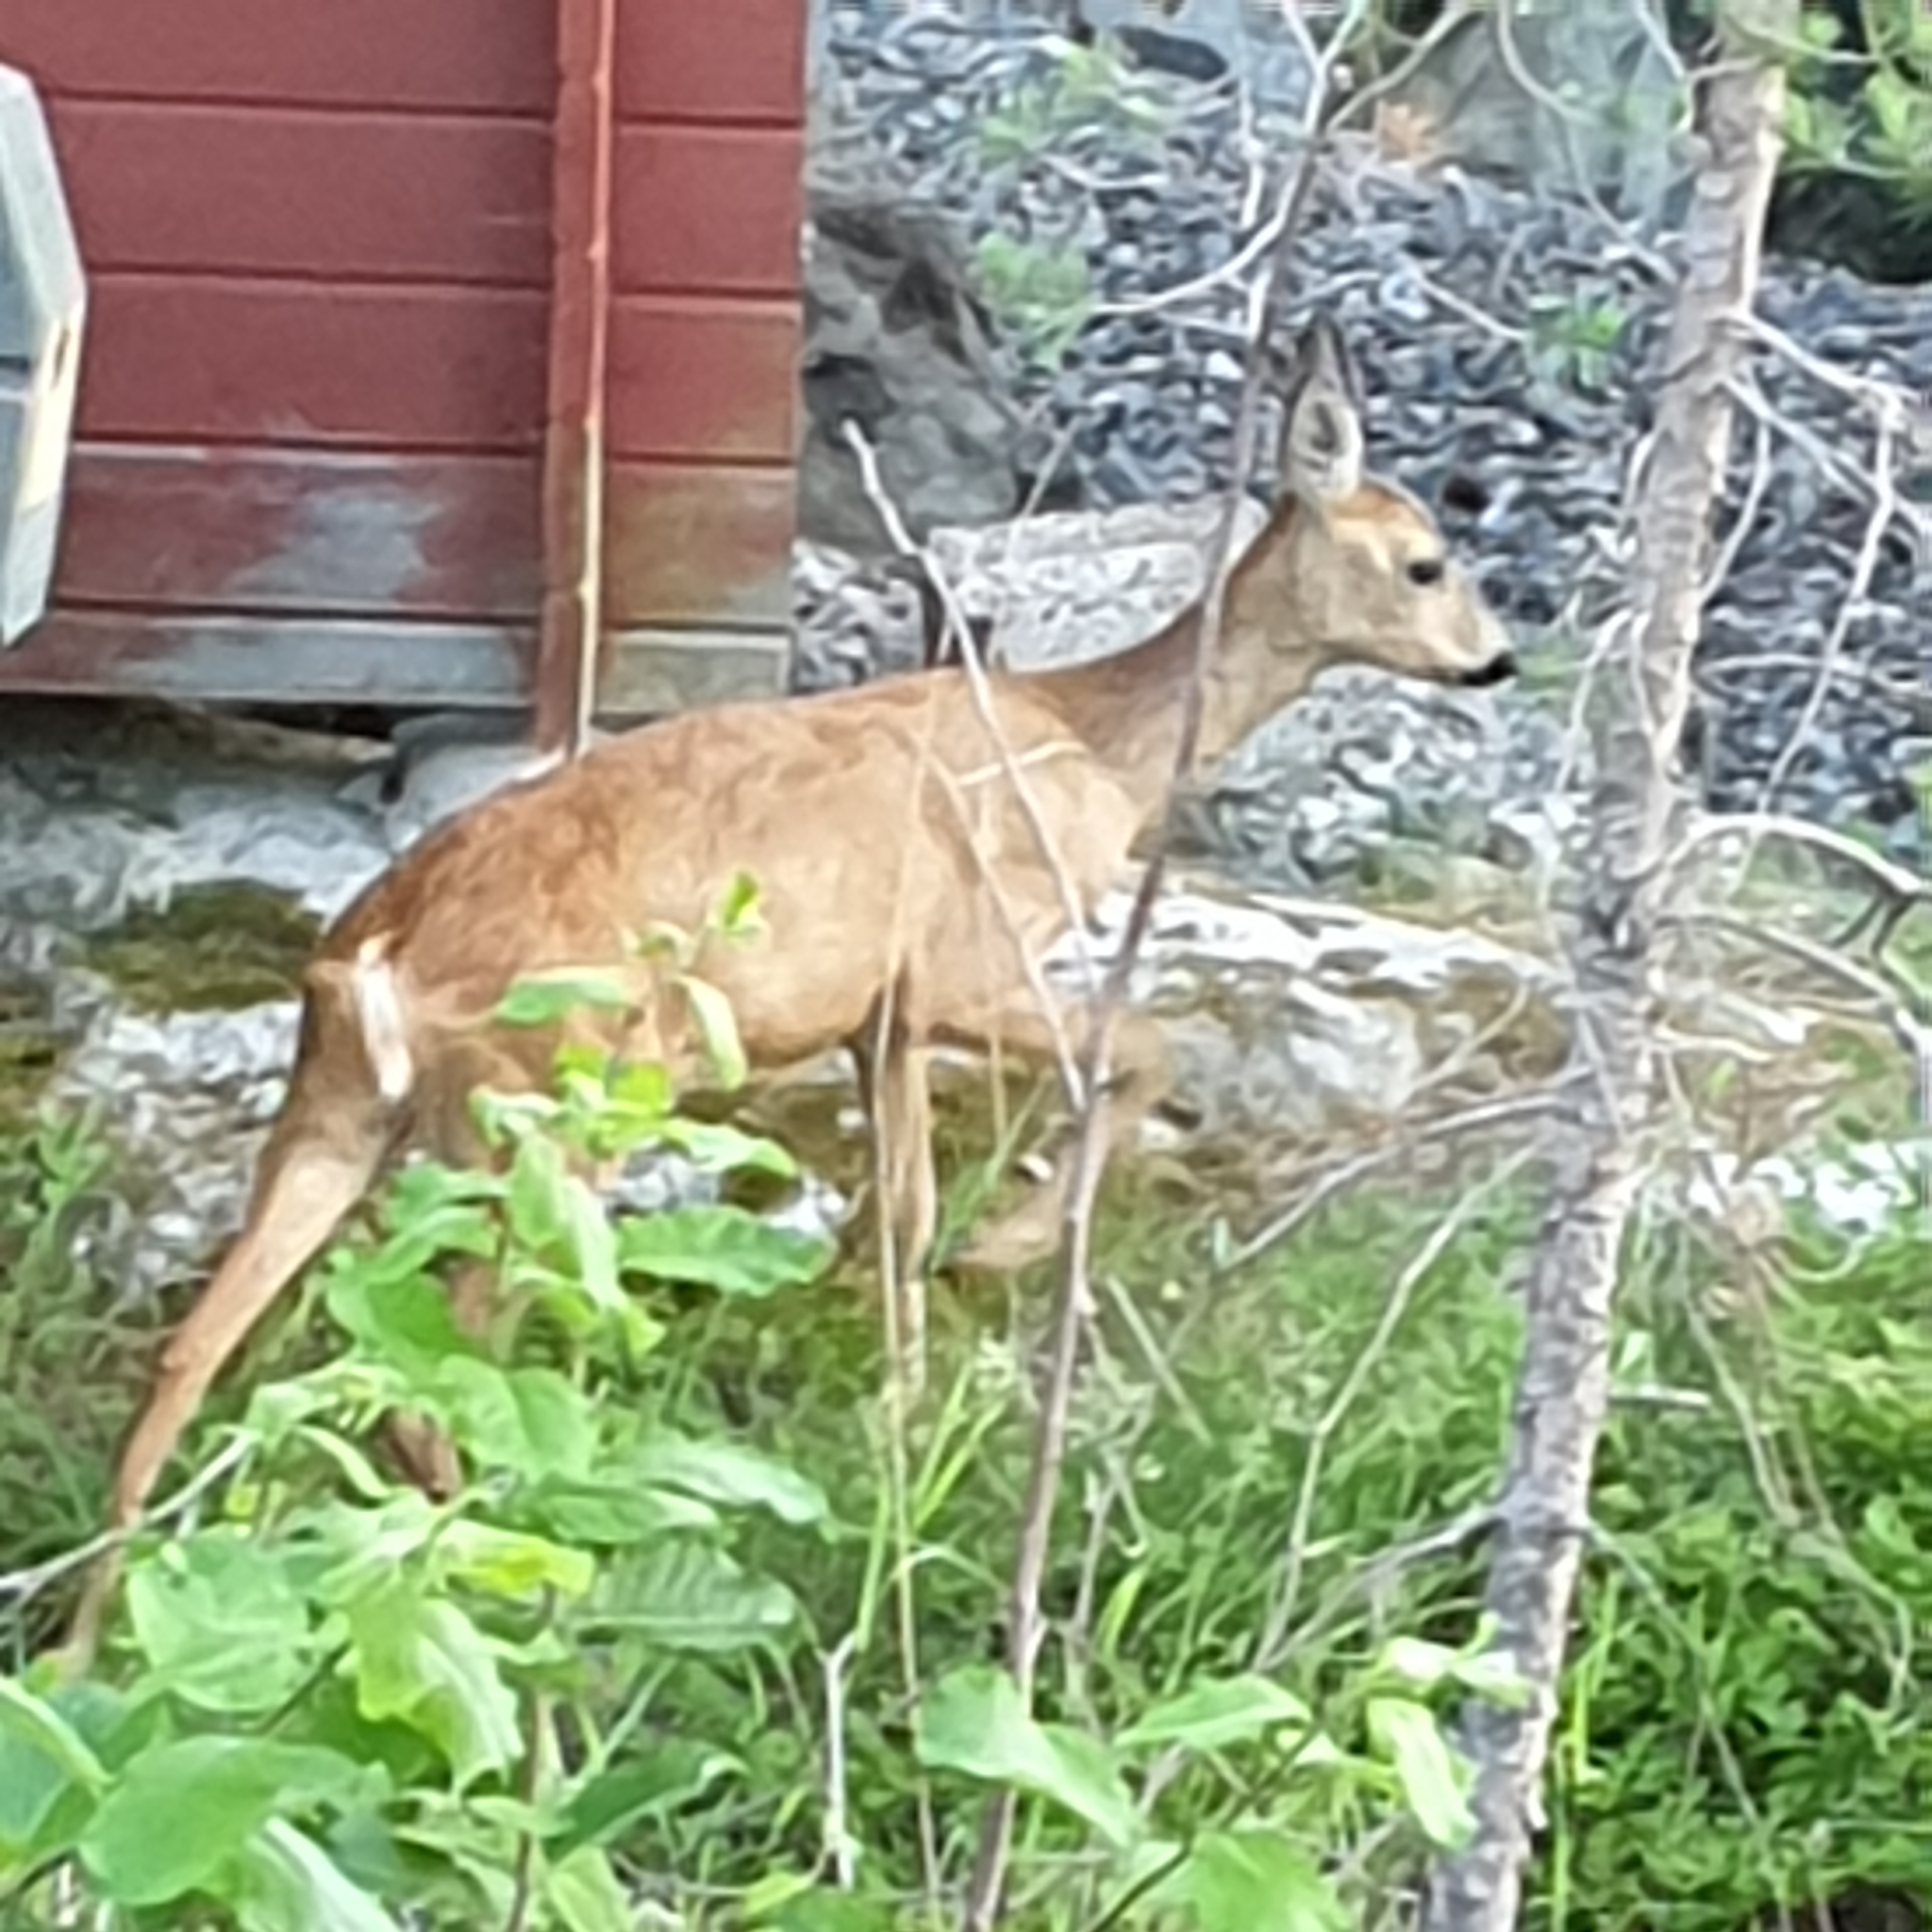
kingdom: Animalia
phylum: Chordata
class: Mammalia
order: Artiodactyla
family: Cervidae
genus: Capreolus
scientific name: Capreolus capreolus
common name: Western roe deer
